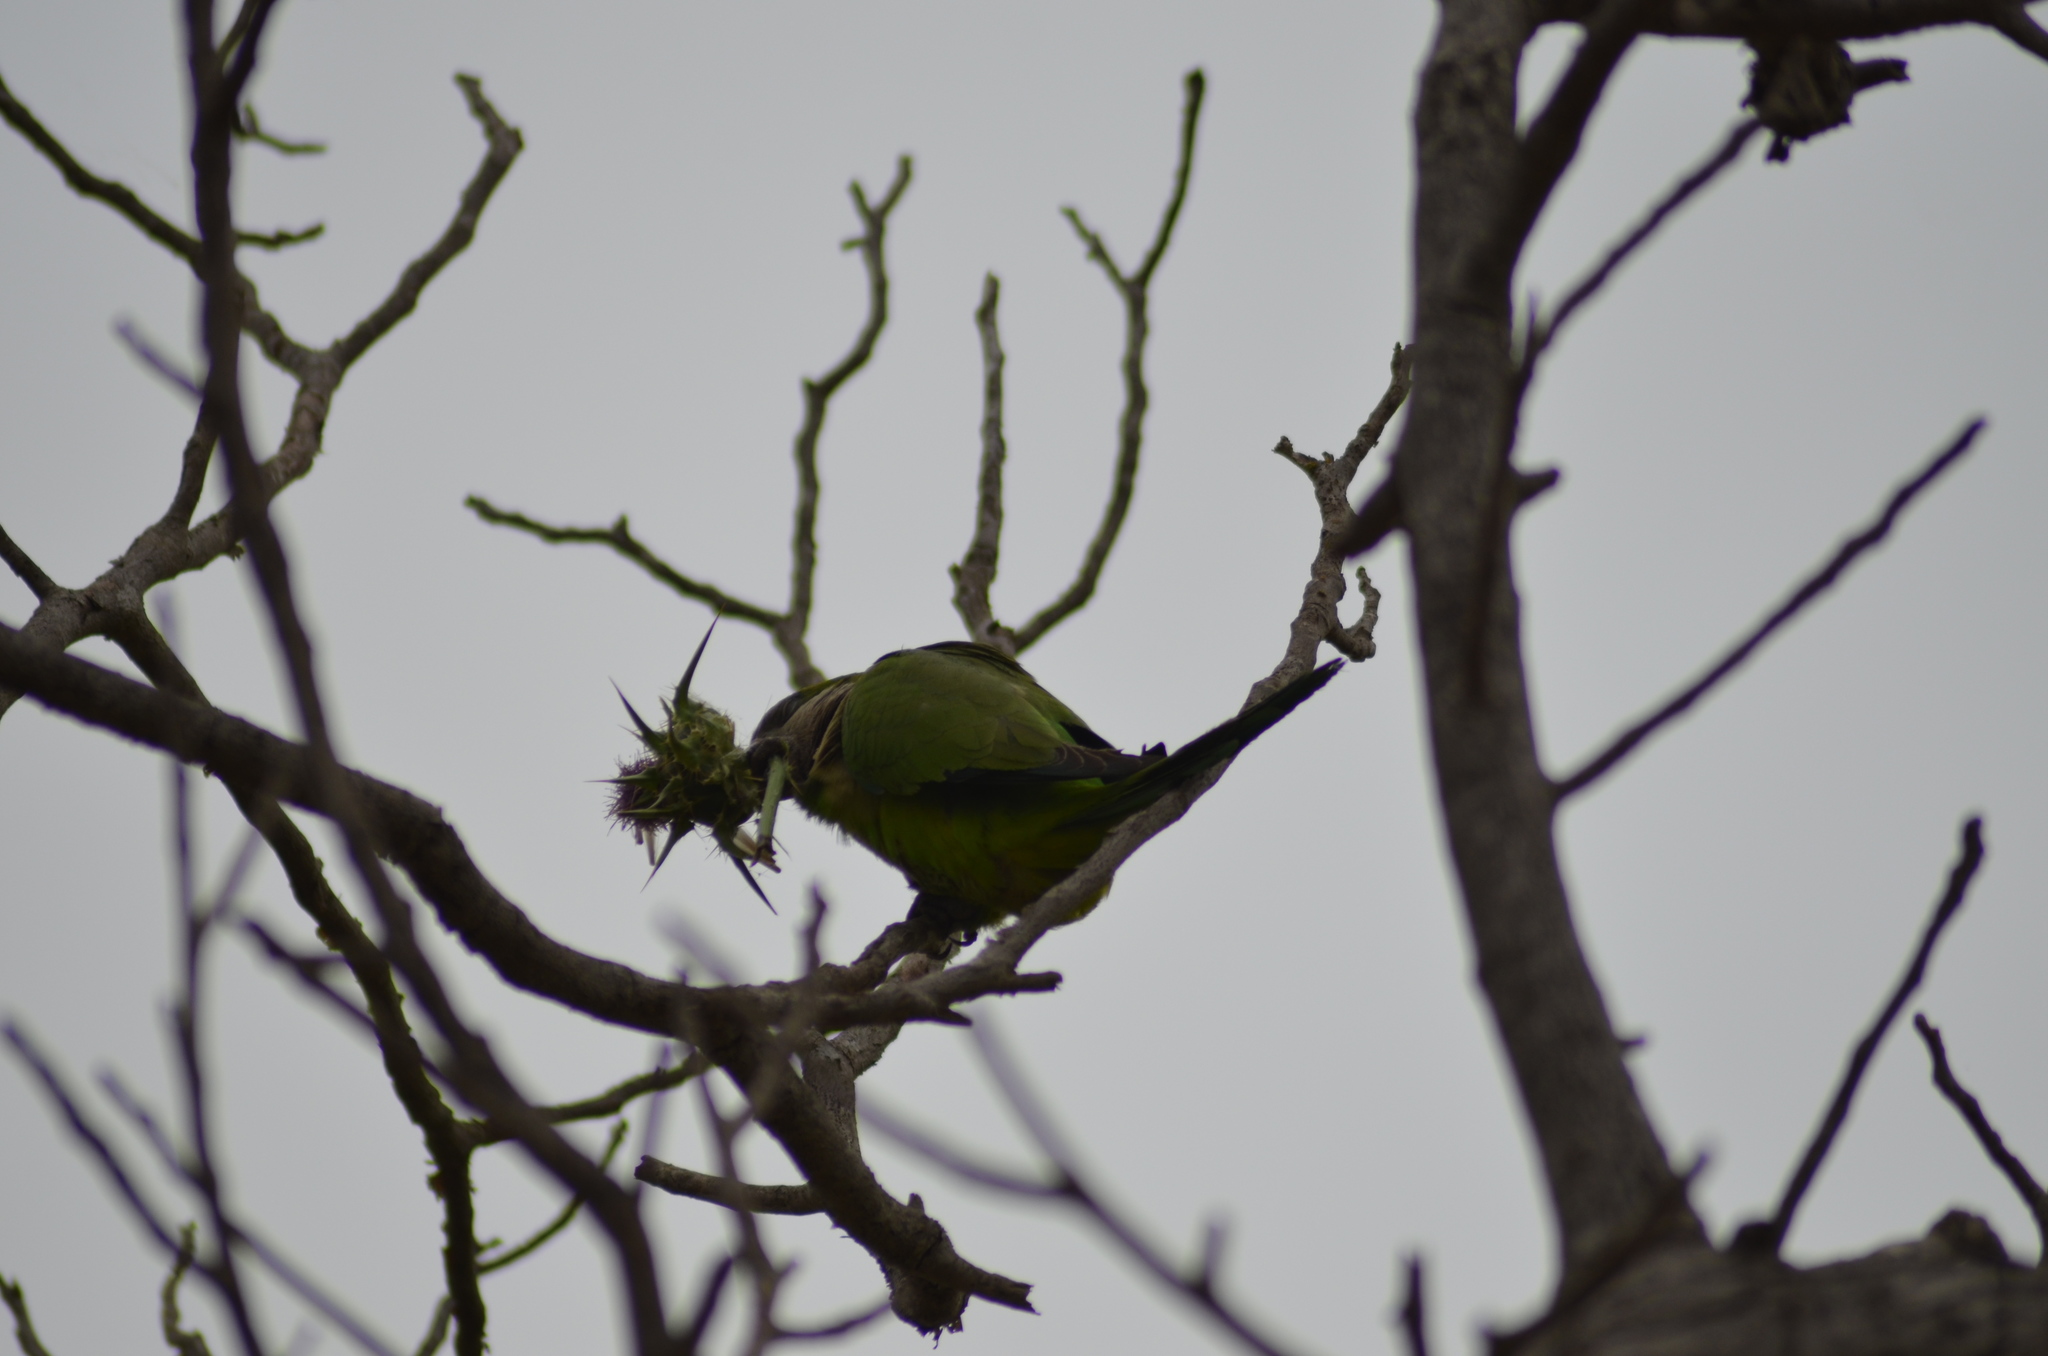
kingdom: Animalia
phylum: Chordata
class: Aves
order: Psittaciformes
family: Psittacidae
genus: Myiopsitta
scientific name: Myiopsitta monachus
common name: Monk parakeet
